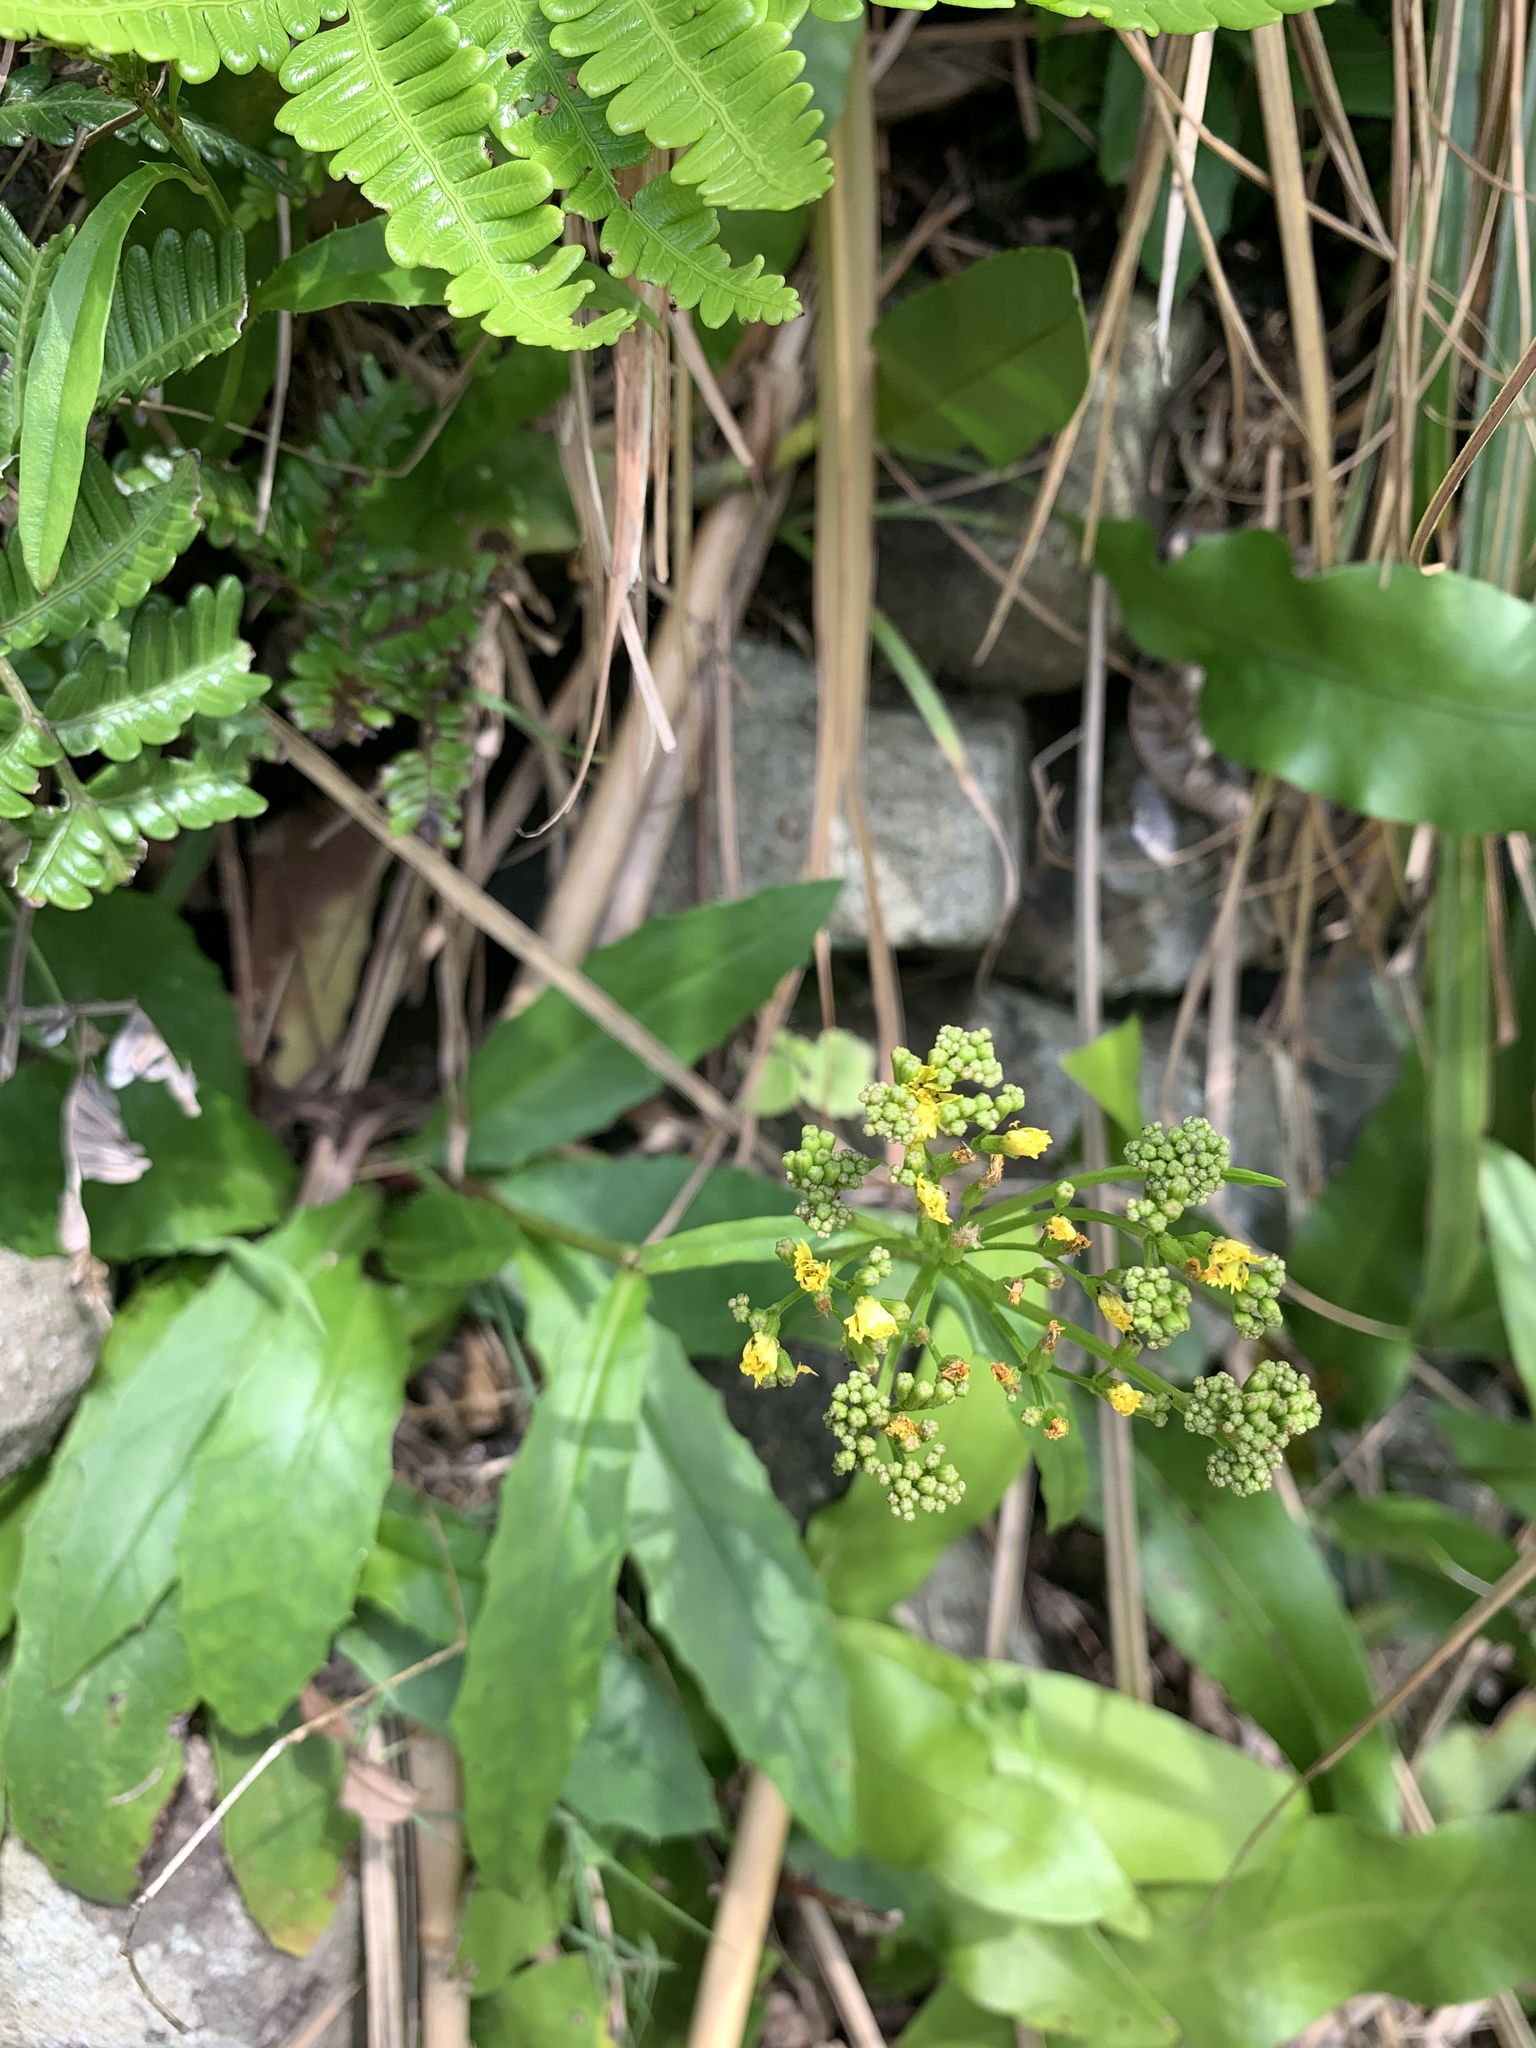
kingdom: Plantae
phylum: Tracheophyta
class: Magnoliopsida
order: Asterales
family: Asteraceae
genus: Ixeridium
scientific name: Ixeridium laevigatum
